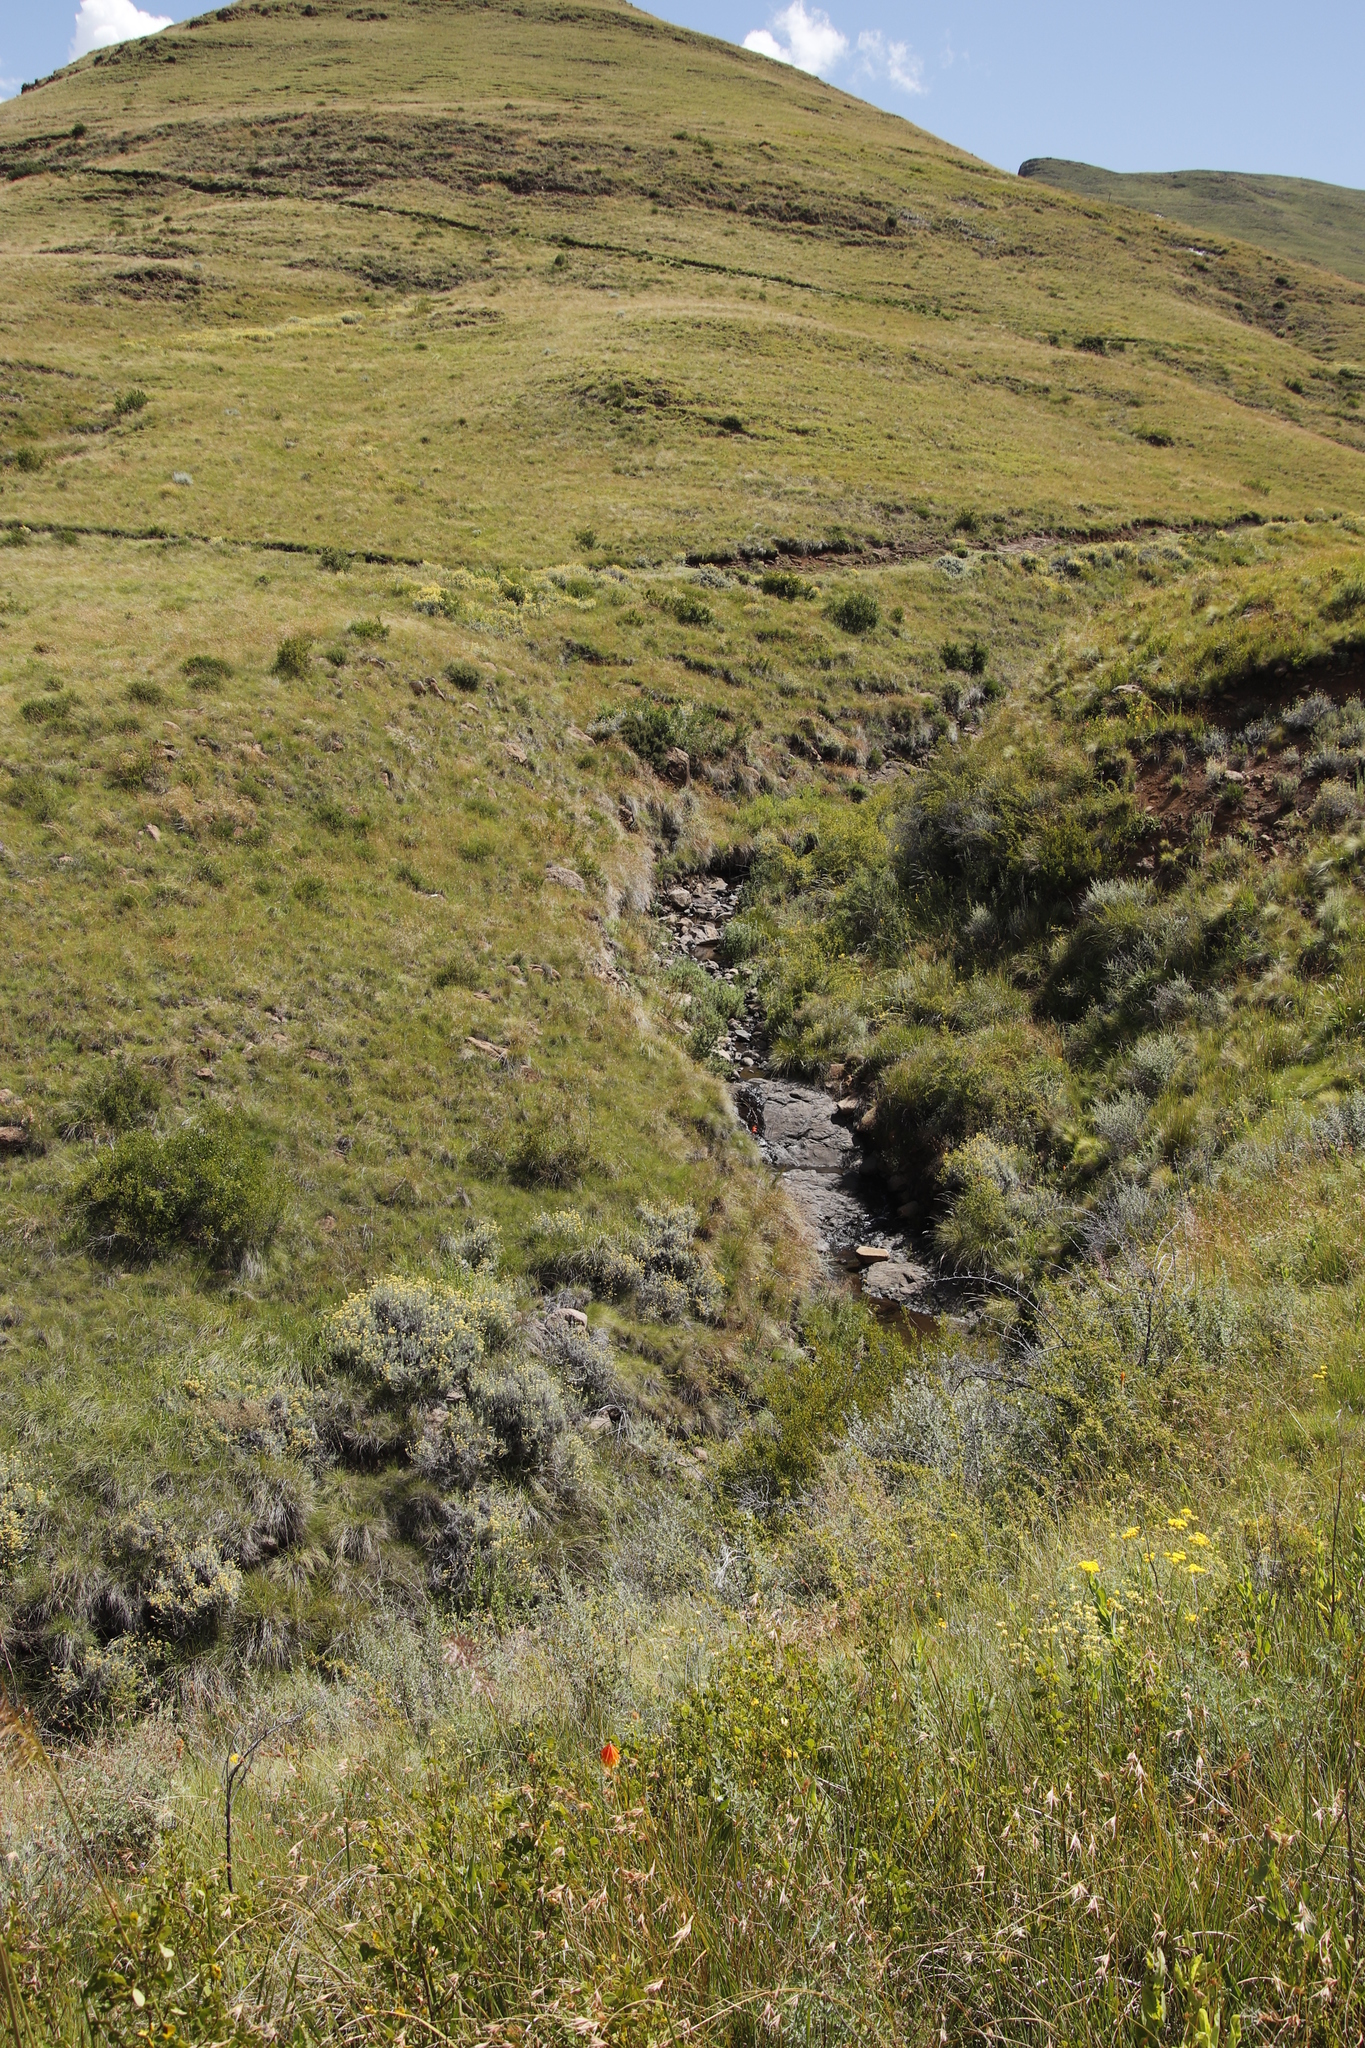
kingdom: Plantae
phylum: Tracheophyta
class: Liliopsida
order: Asparagales
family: Iridaceae
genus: Gladiolus
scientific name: Gladiolus saundersii
